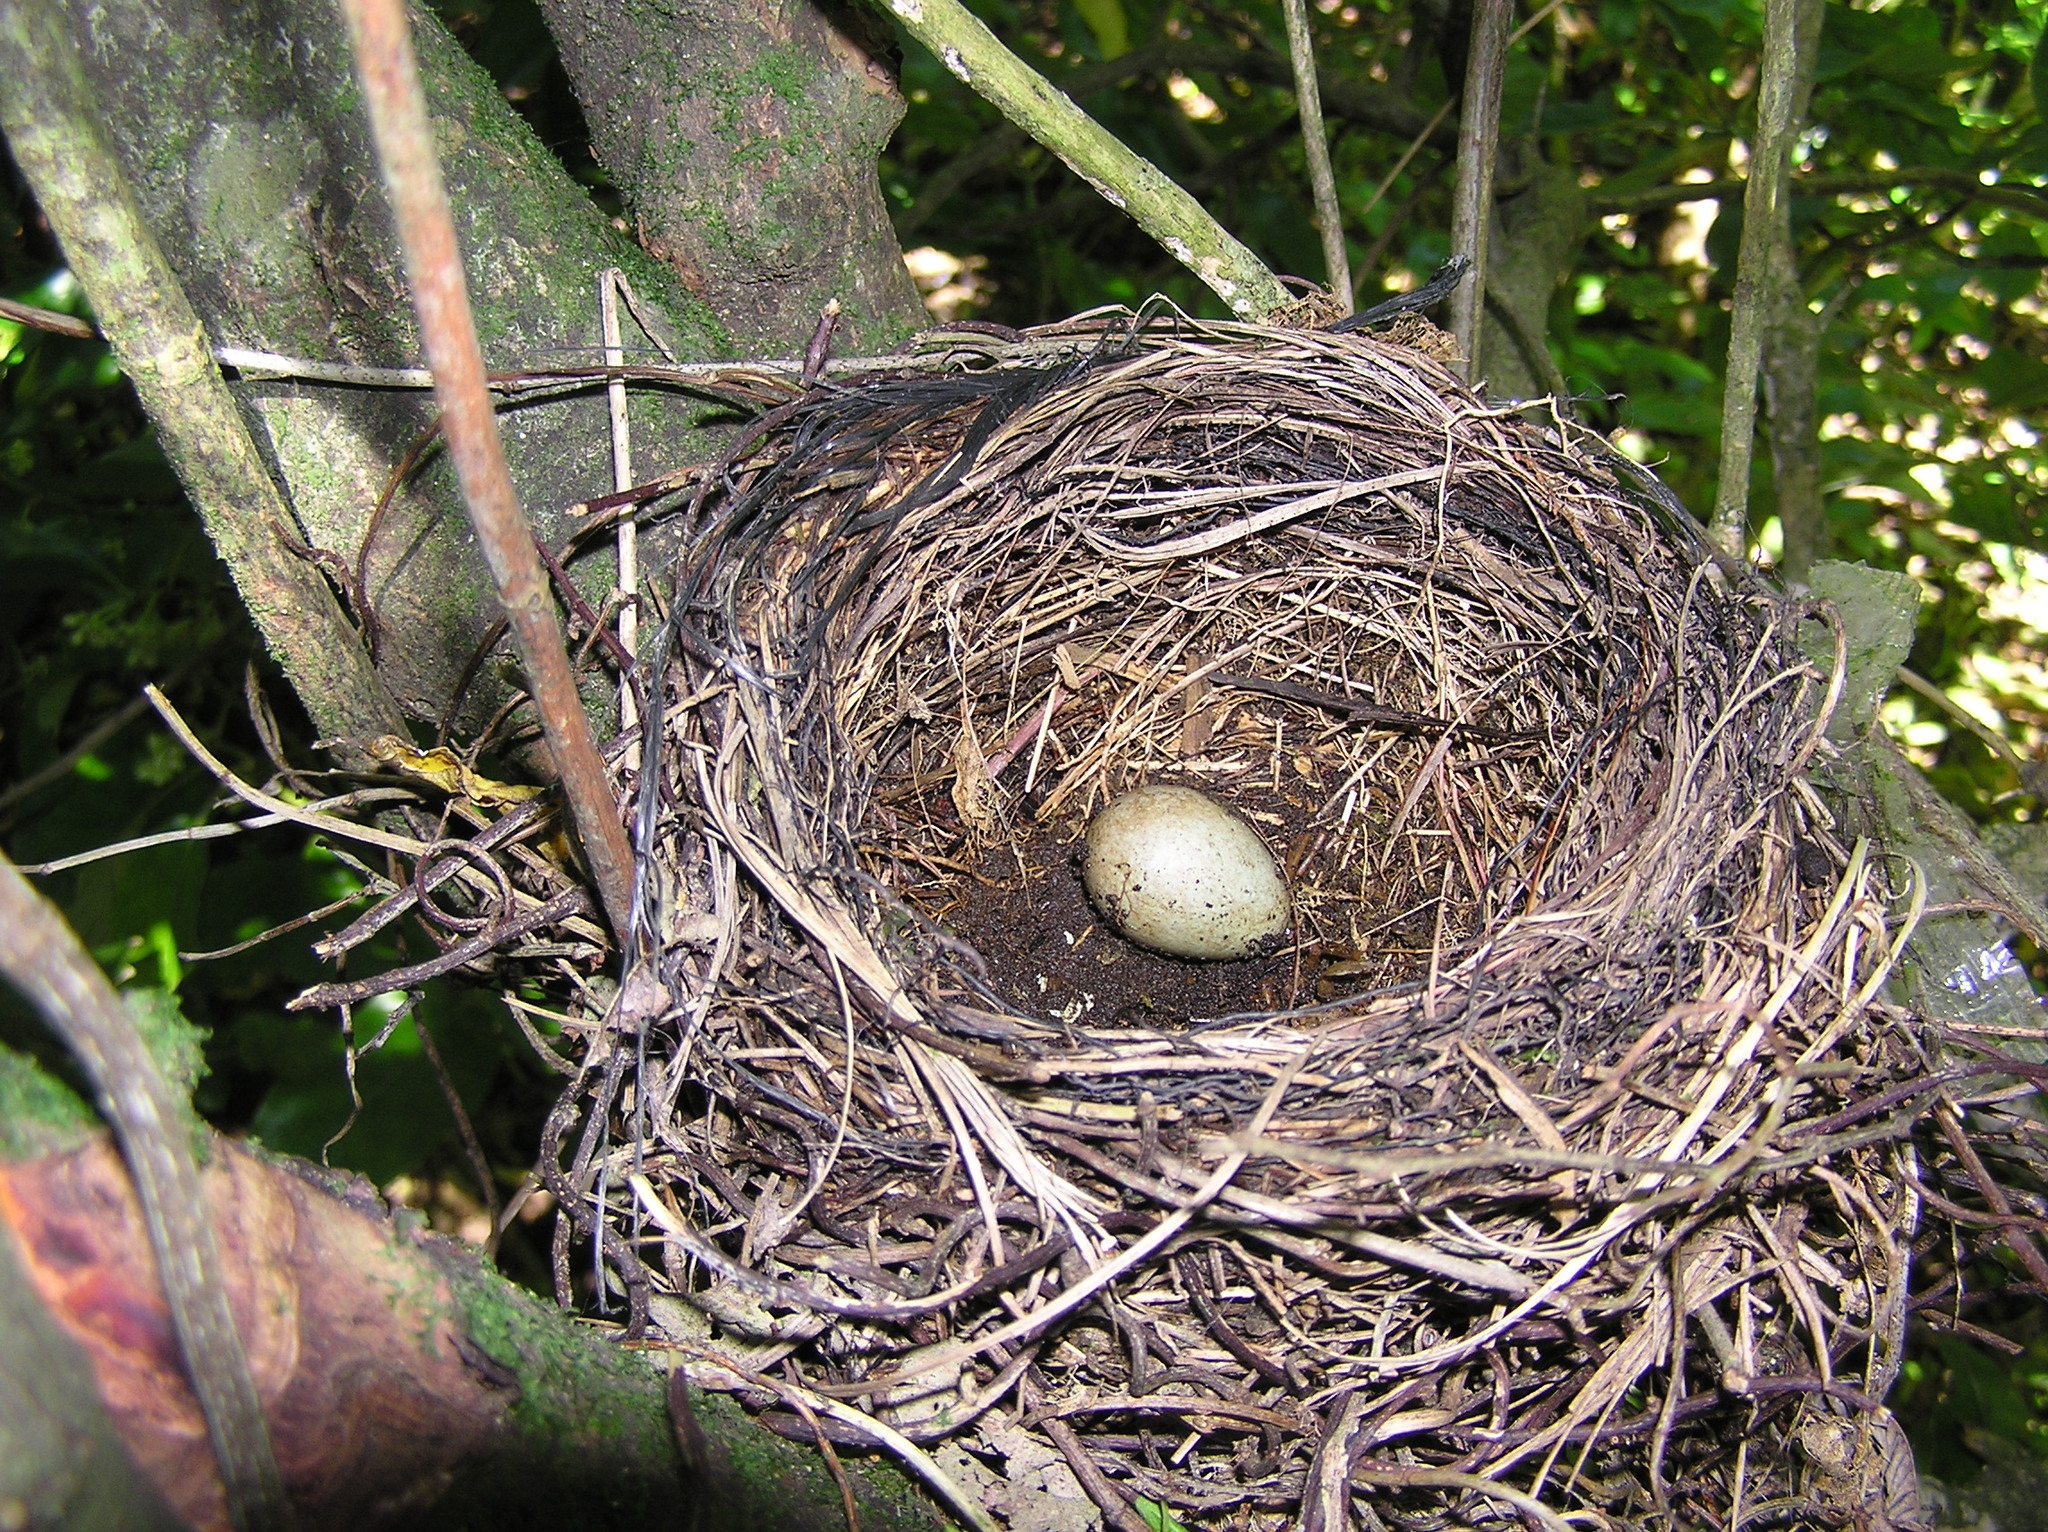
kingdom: Animalia
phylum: Chordata
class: Aves
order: Passeriformes
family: Turdidae
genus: Turdus
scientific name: Turdus merula
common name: Common blackbird
